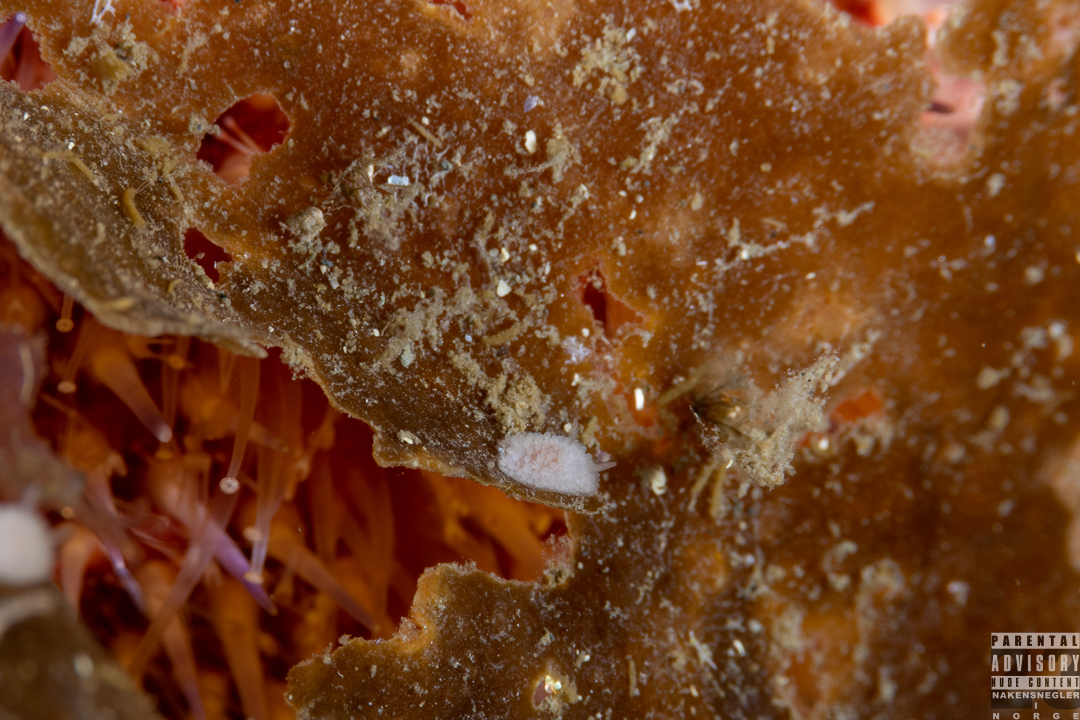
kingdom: Animalia
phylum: Mollusca
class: Gastropoda
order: Nudibranchia
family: Onchidorididae
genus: Onchidoris
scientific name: Onchidoris muricata
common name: Rough doris
